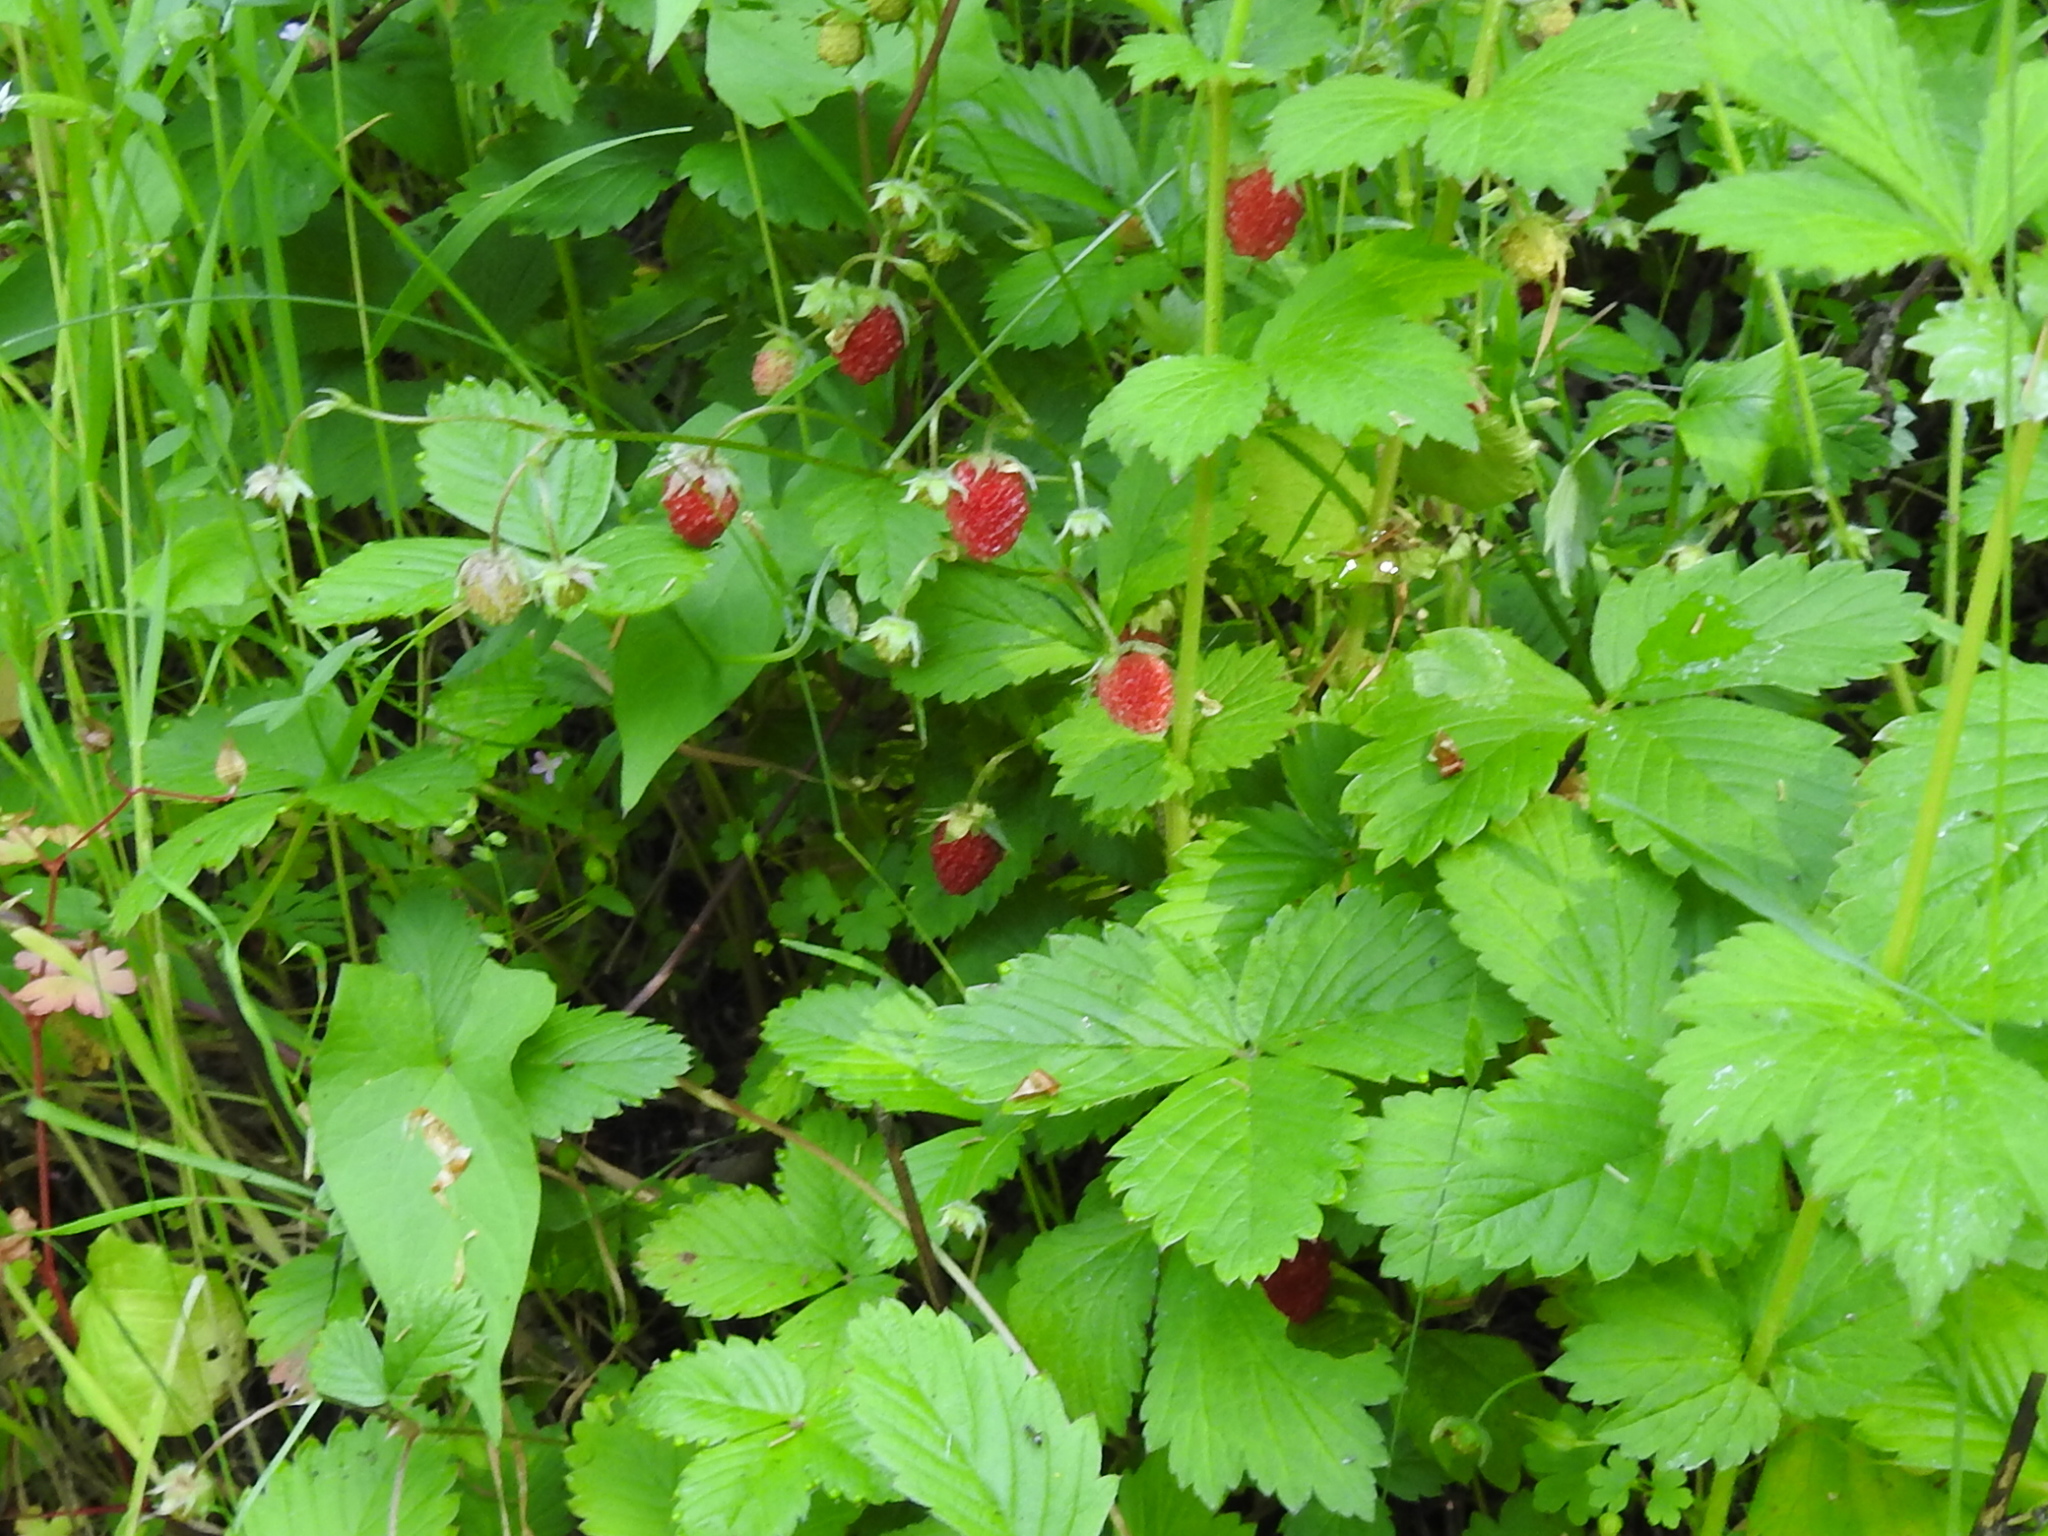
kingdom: Plantae
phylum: Tracheophyta
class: Magnoliopsida
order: Rosales
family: Rosaceae
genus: Fragaria
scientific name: Fragaria vesca
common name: Wild strawberry
